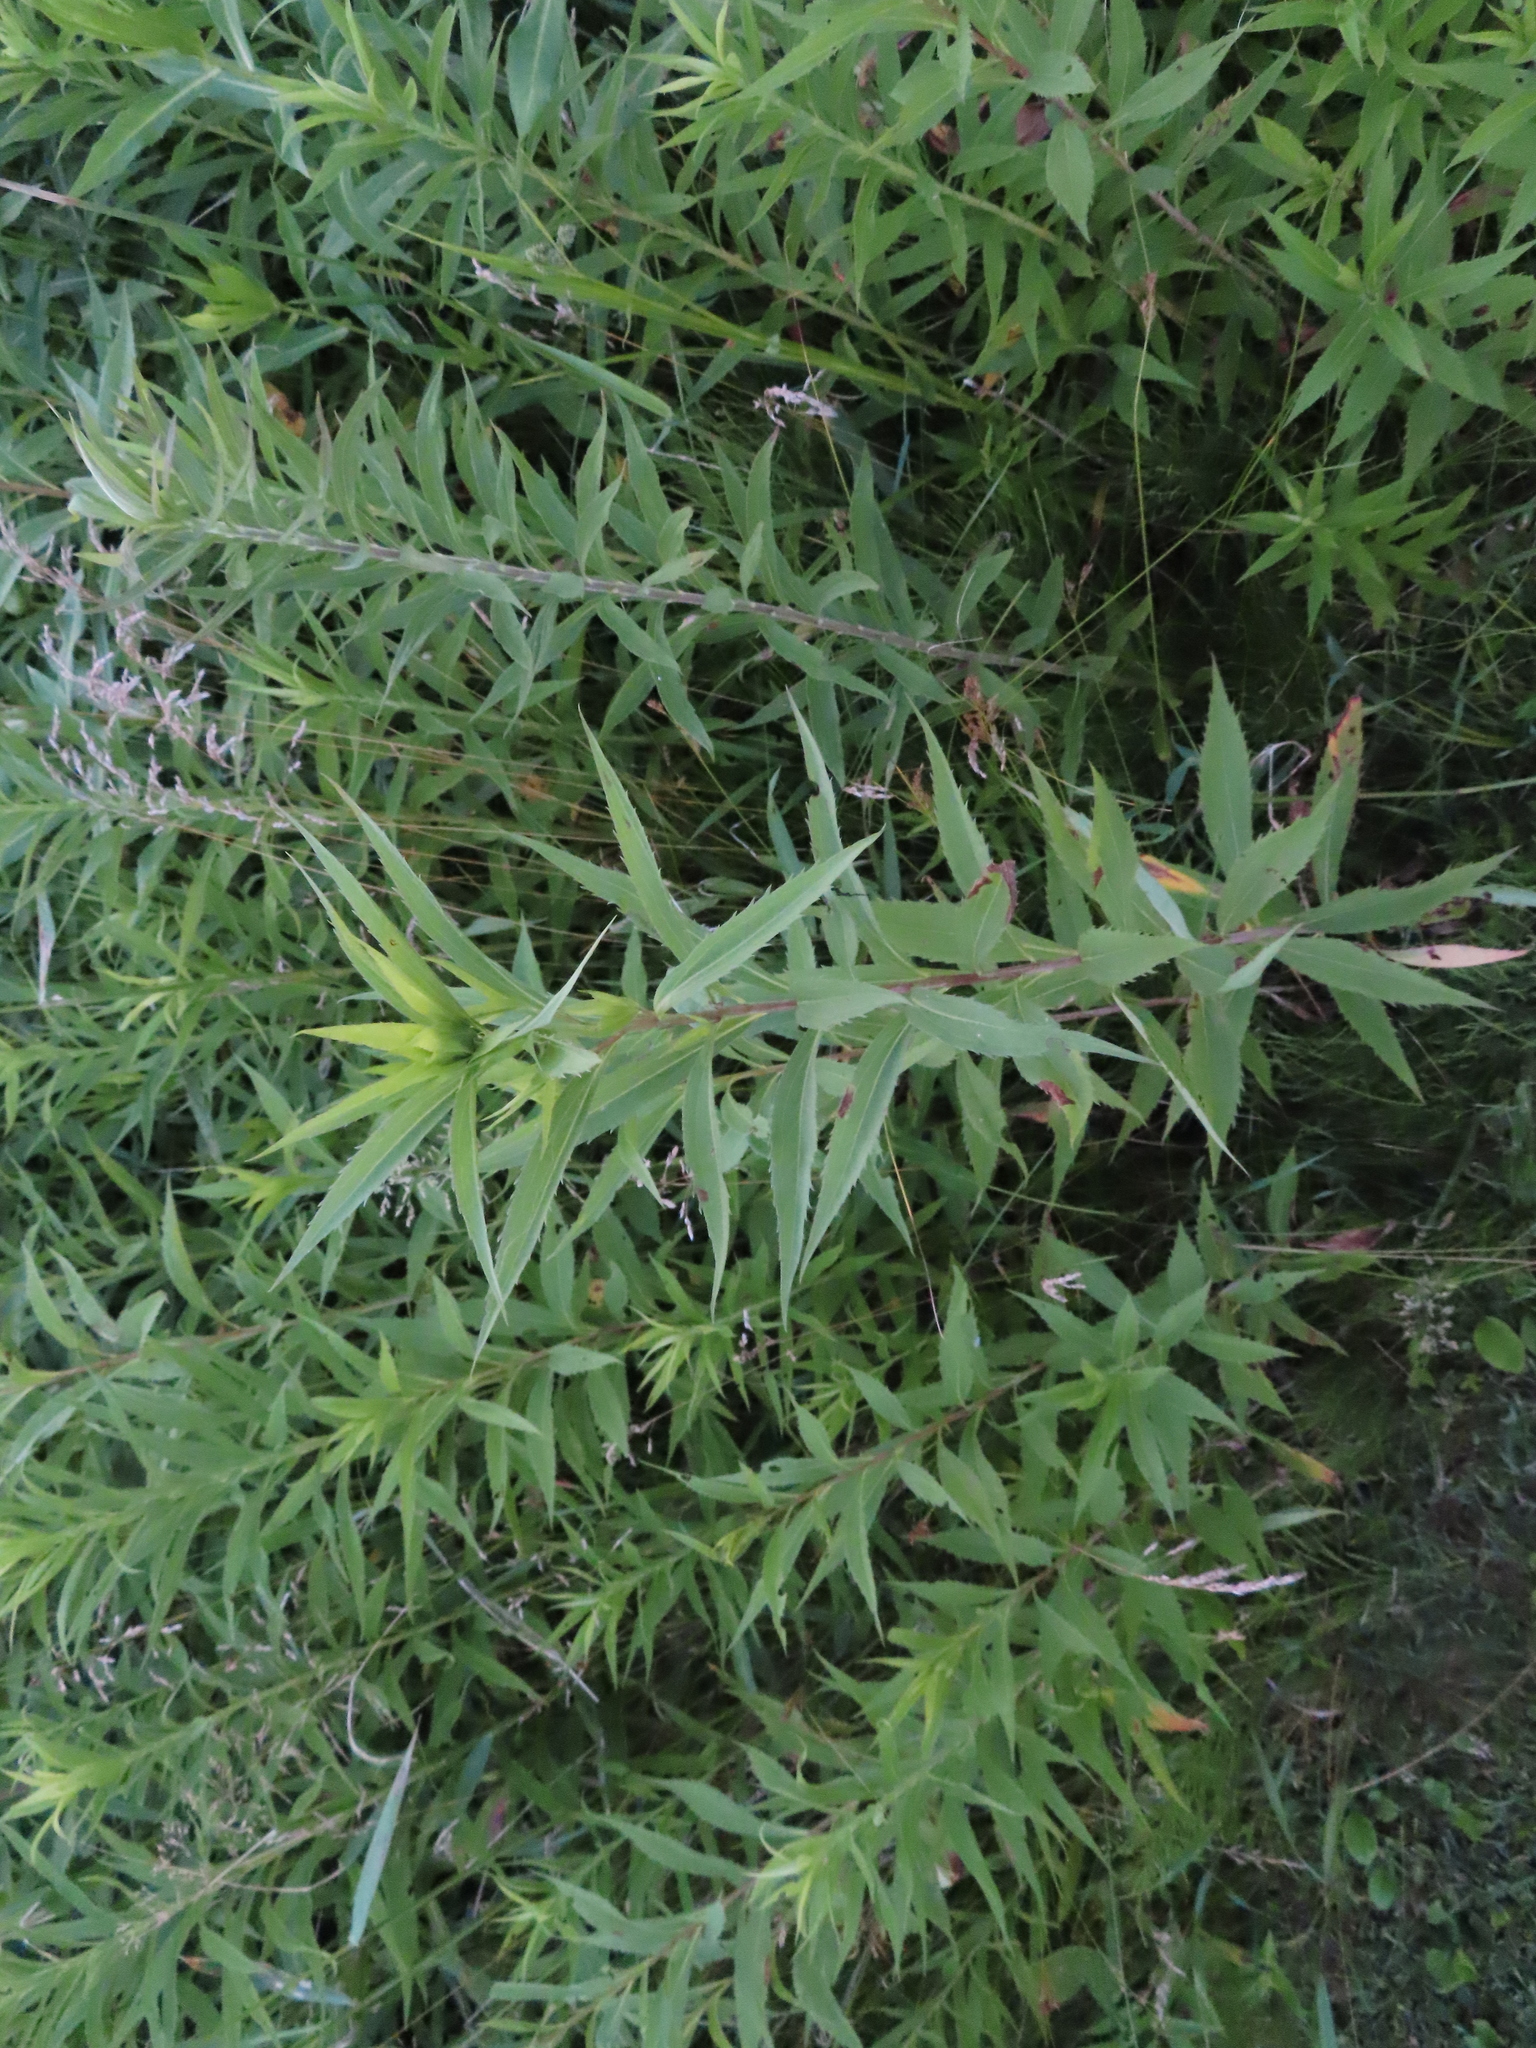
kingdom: Plantae
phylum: Tracheophyta
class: Magnoliopsida
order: Asterales
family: Asteraceae
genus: Solidago
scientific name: Solidago
